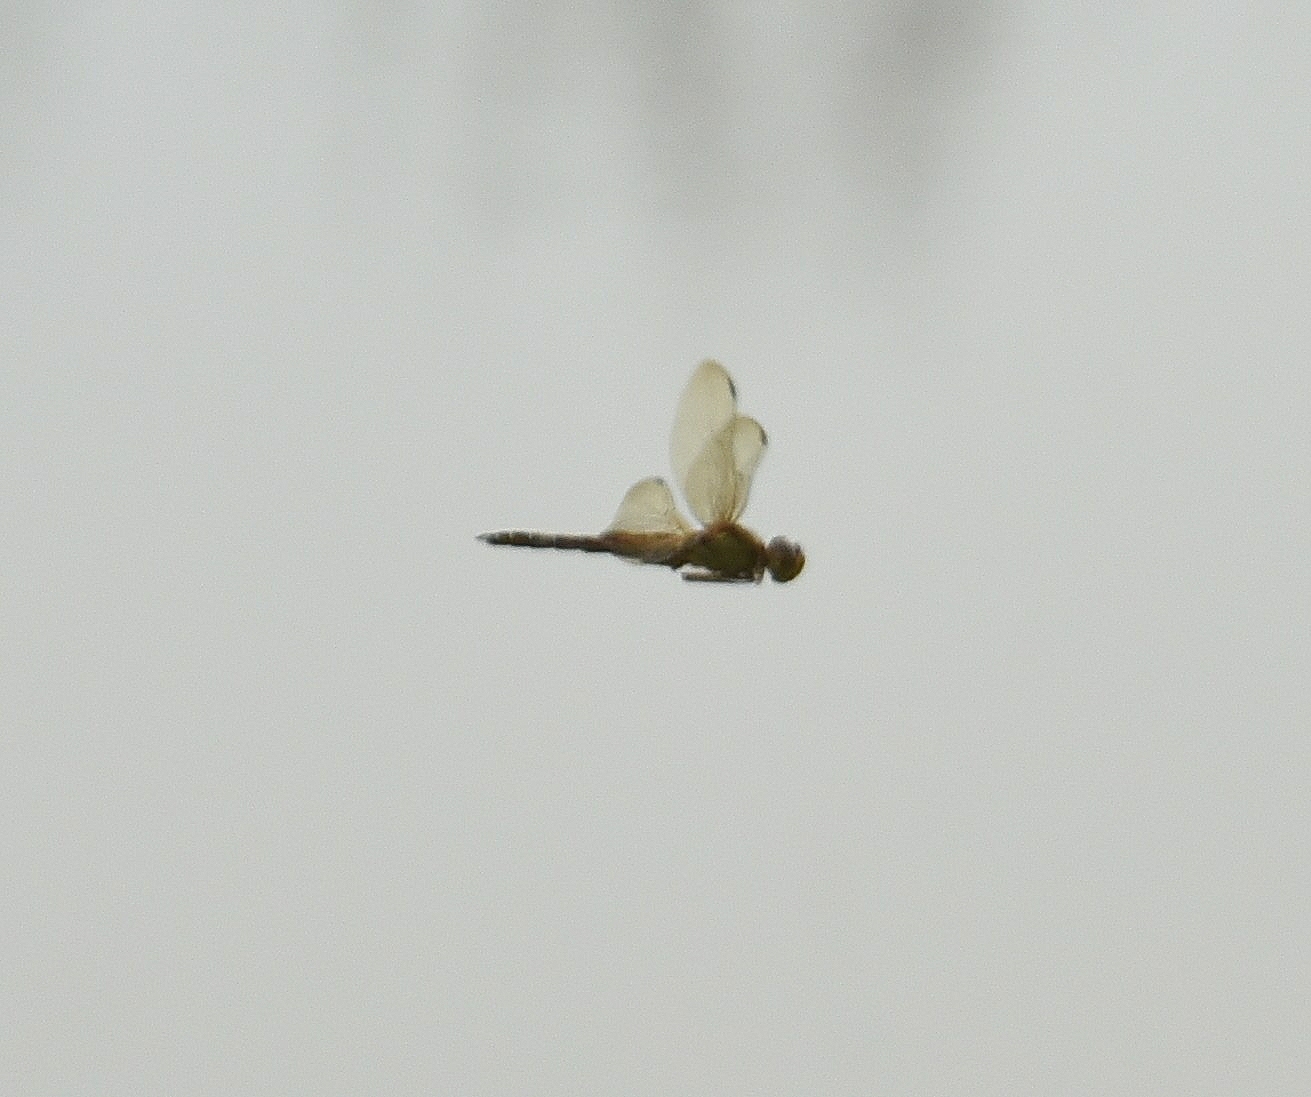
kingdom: Animalia
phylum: Arthropoda
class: Insecta
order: Odonata
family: Libellulidae
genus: Hydrobasileus
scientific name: Hydrobasileus croceus
